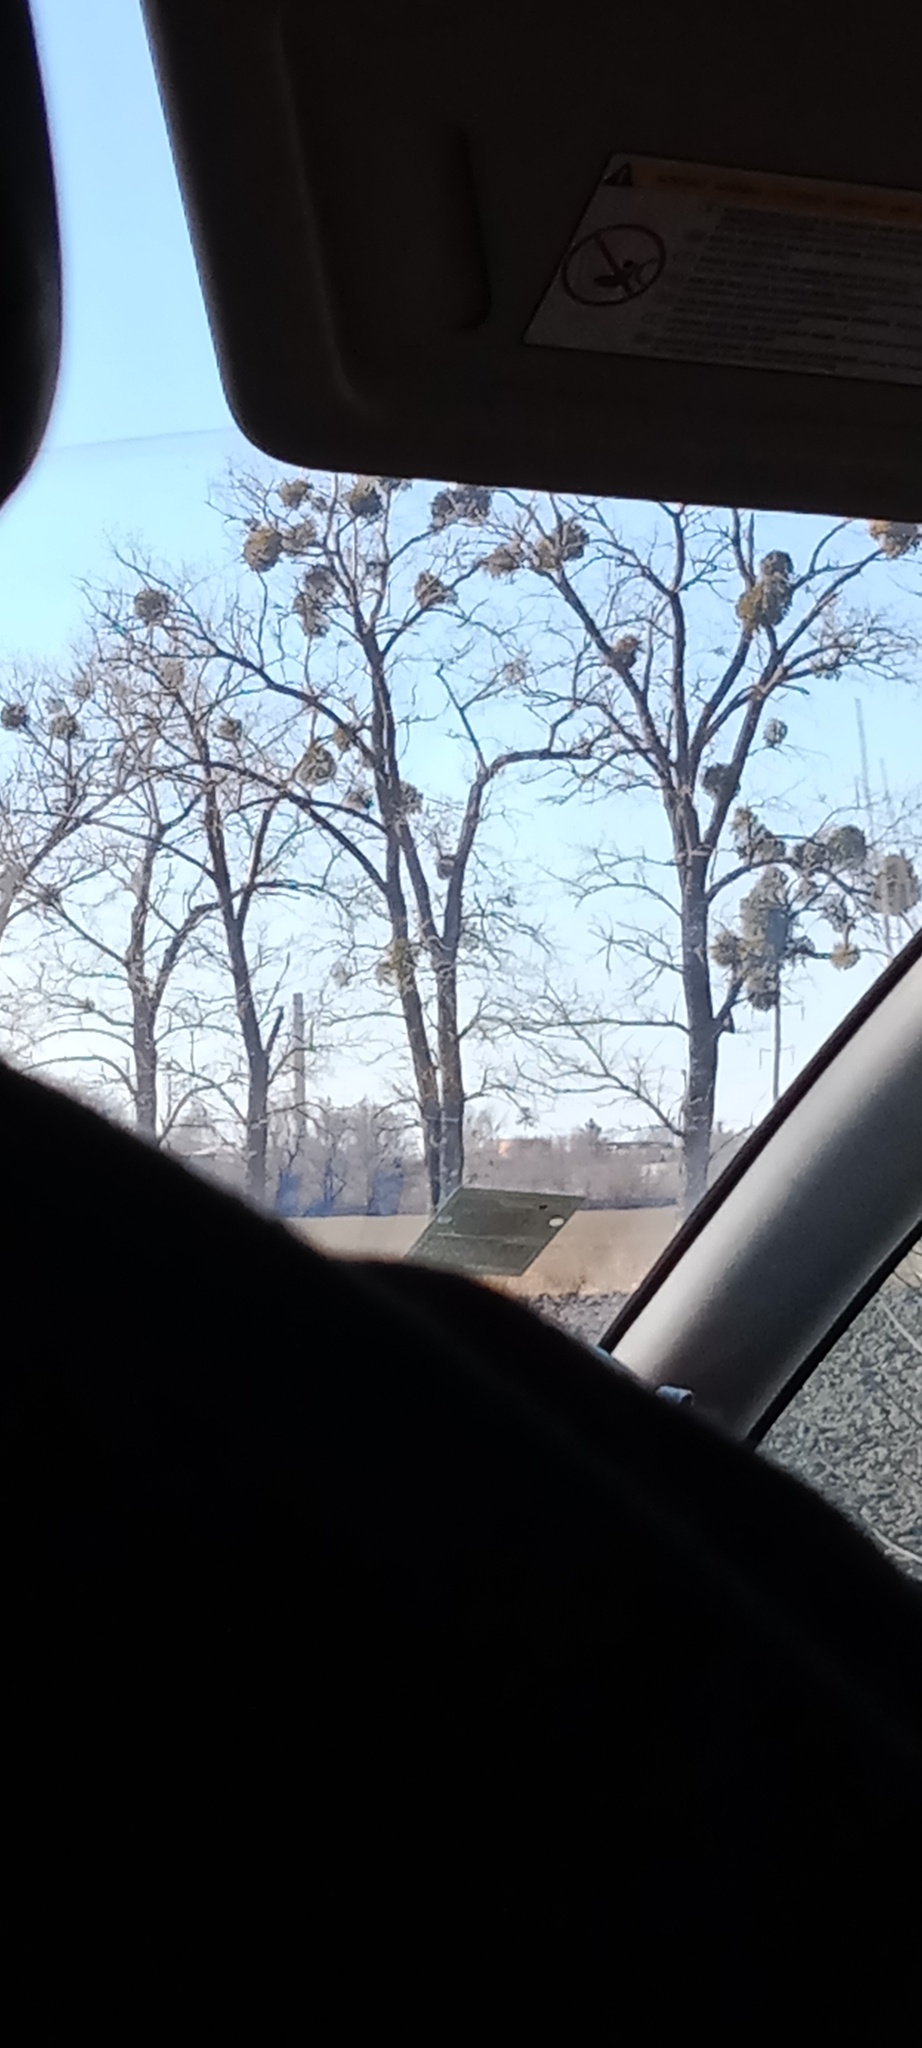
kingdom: Plantae
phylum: Tracheophyta
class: Magnoliopsida
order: Santalales
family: Viscaceae
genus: Viscum
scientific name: Viscum album
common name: Mistletoe
